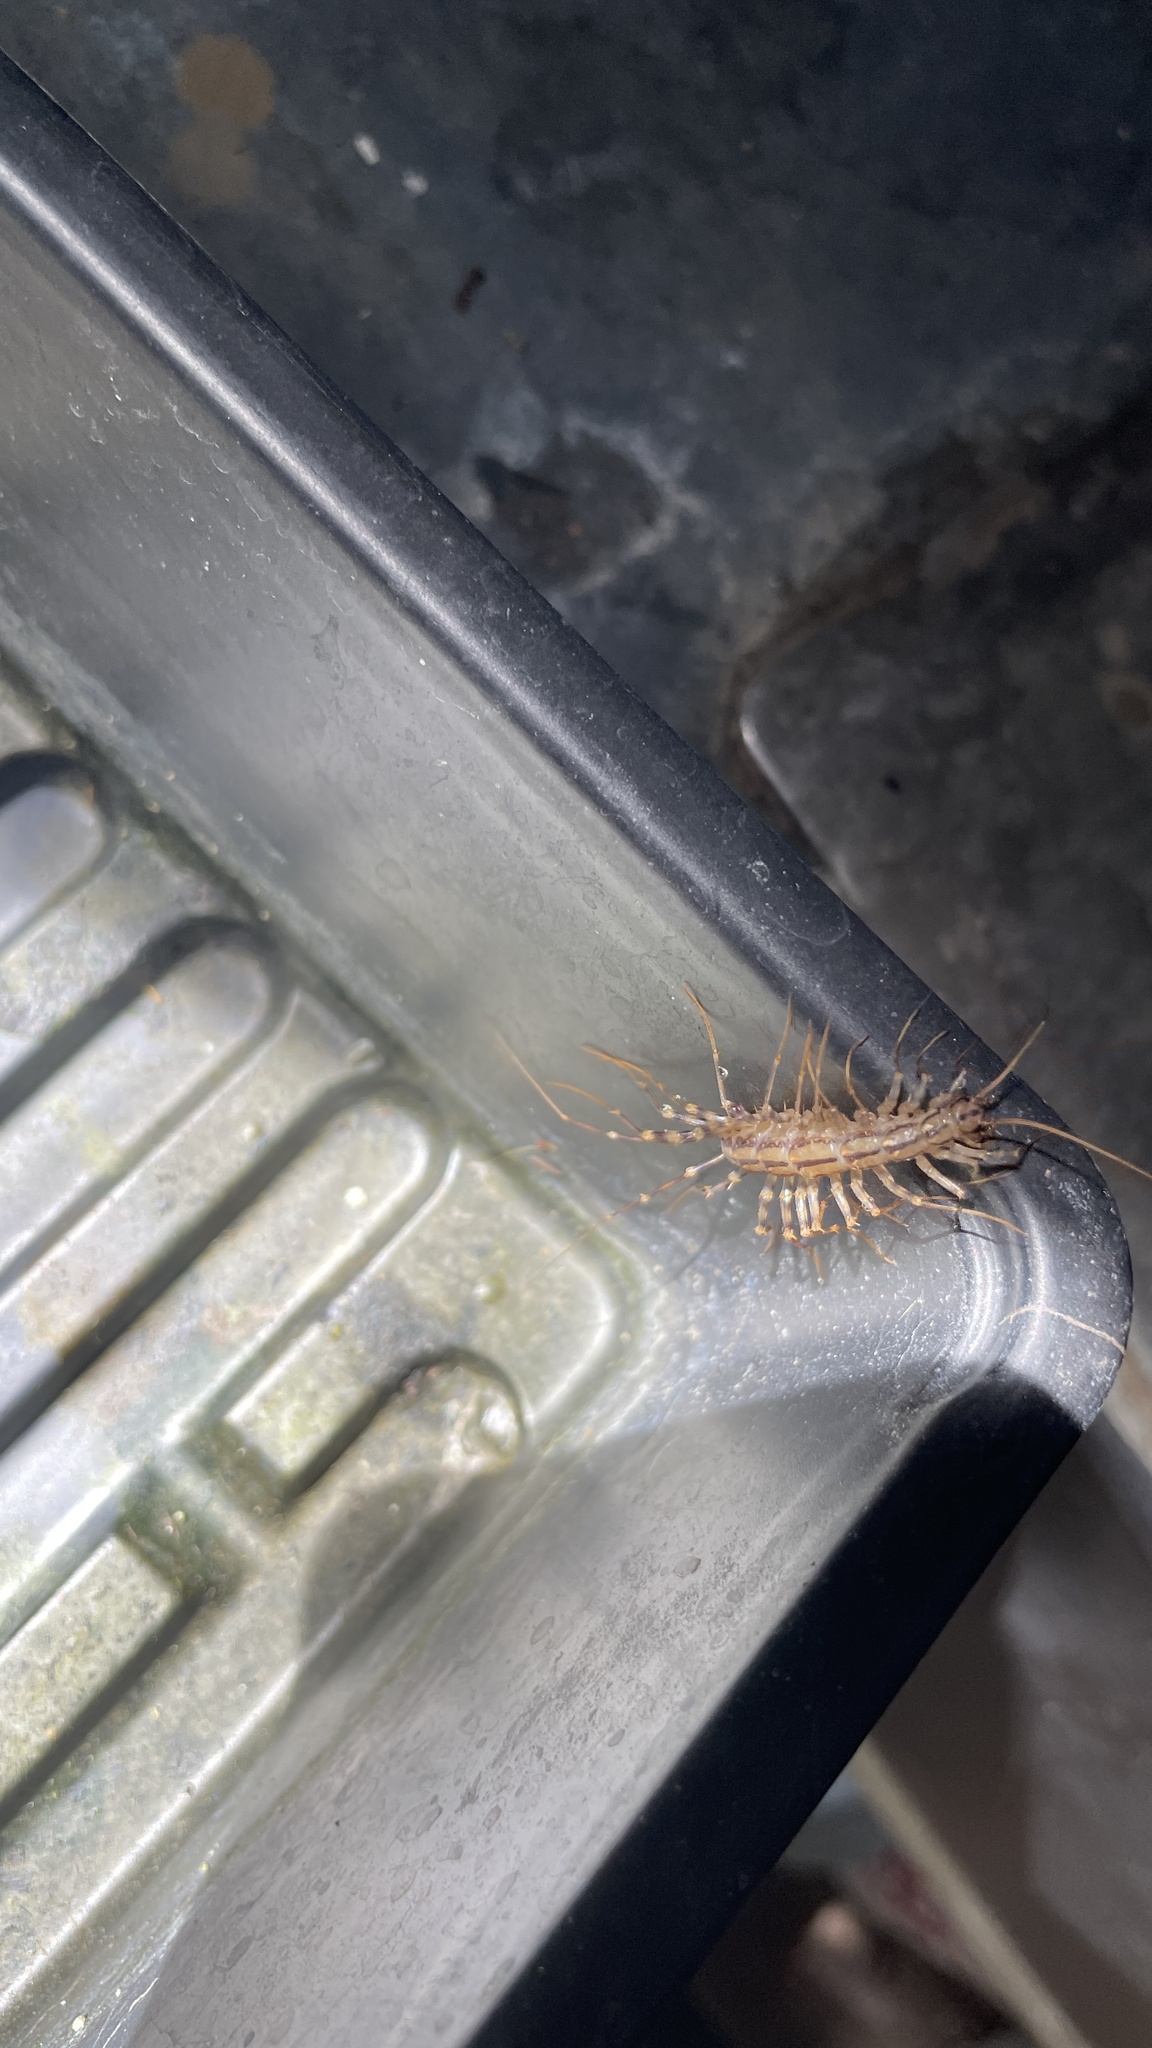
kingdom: Animalia
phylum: Arthropoda
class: Chilopoda
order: Scutigeromorpha
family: Scutigeridae
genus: Scutigera
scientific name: Scutigera coleoptrata
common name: House centipede
